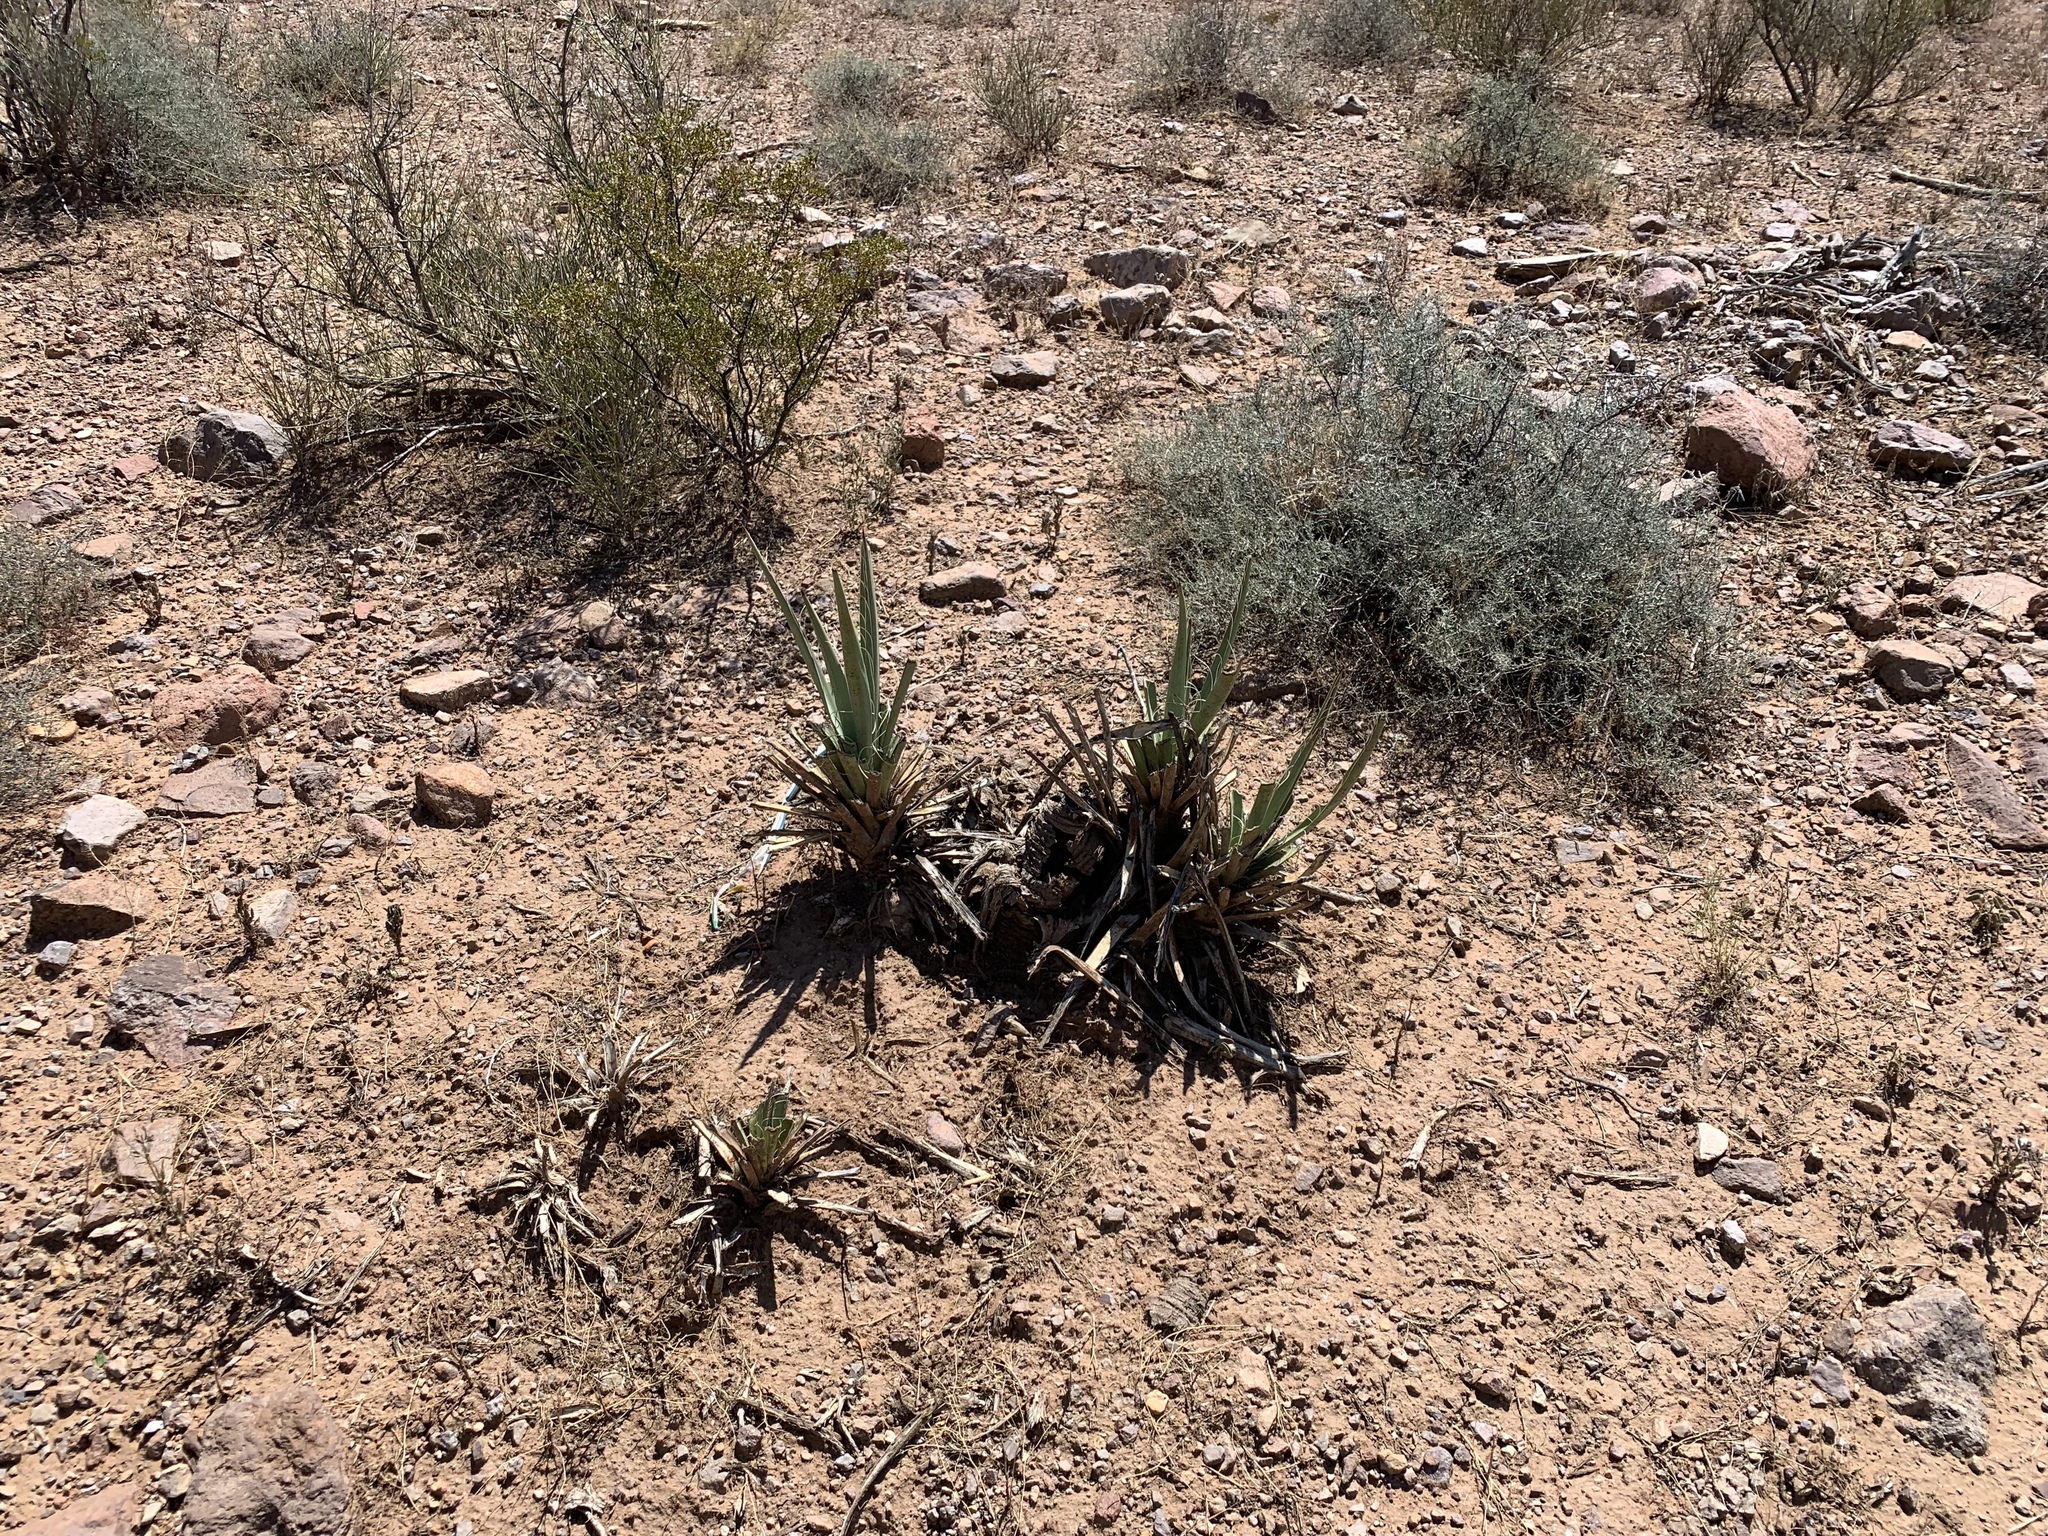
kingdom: Plantae
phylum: Tracheophyta
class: Liliopsida
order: Asparagales
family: Asparagaceae
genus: Yucca
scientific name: Yucca baccata
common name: Banana yucca
